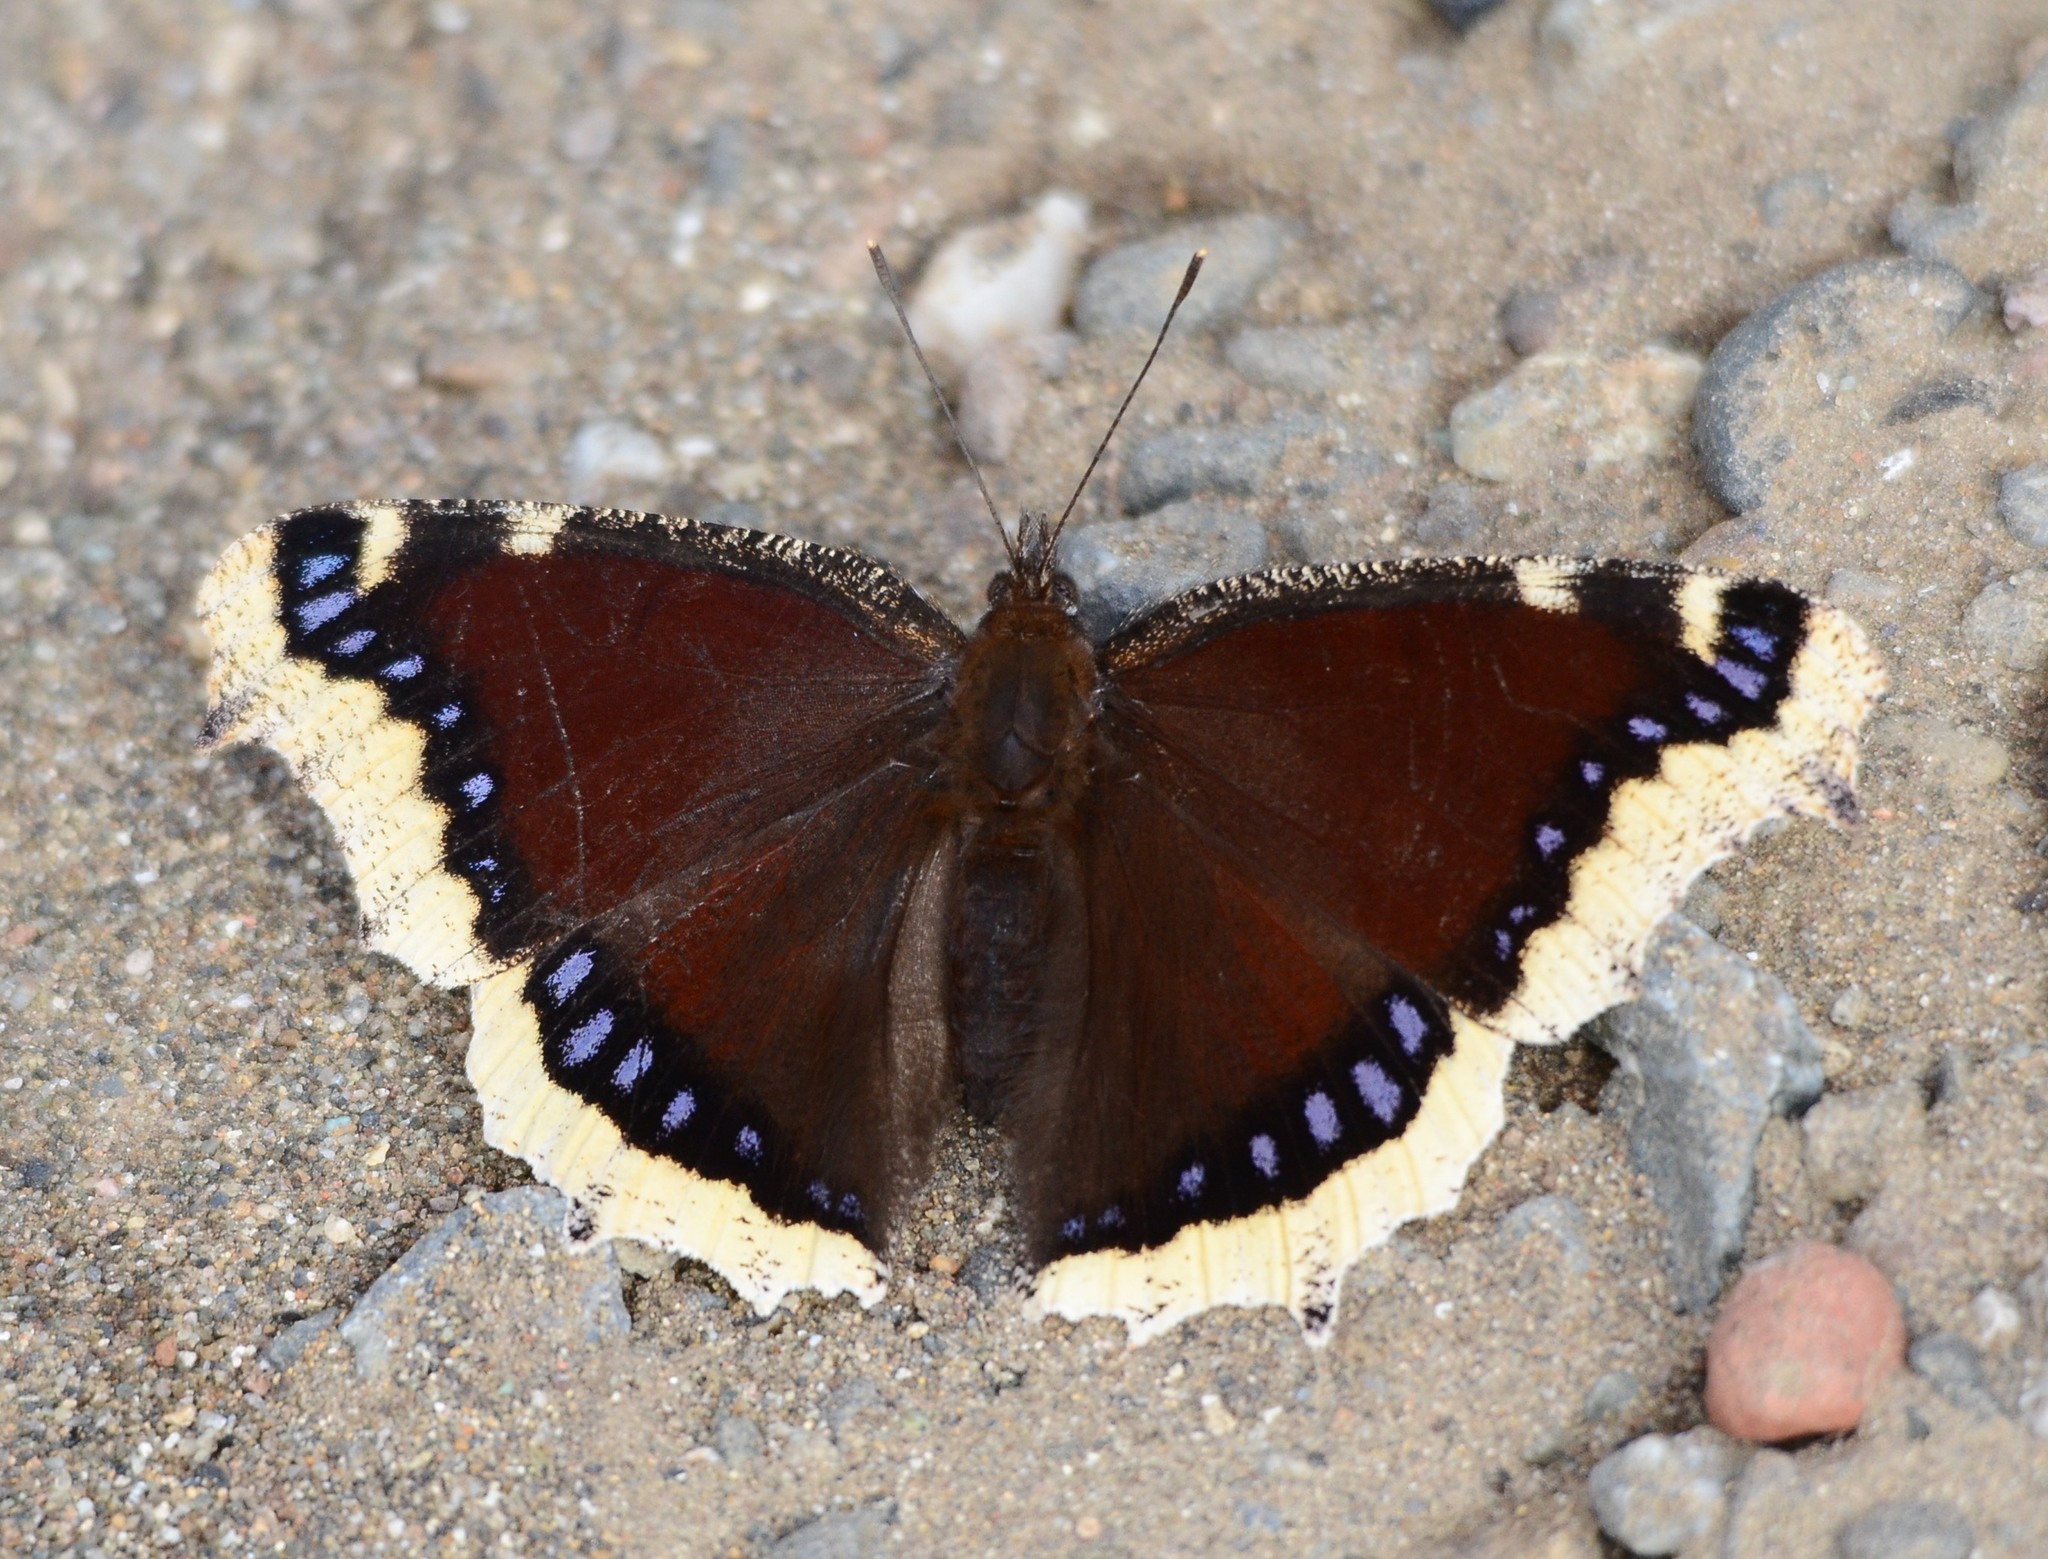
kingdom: Animalia
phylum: Arthropoda
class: Insecta
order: Lepidoptera
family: Nymphalidae
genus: Nymphalis
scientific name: Nymphalis antiopa
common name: Camberwell beauty
